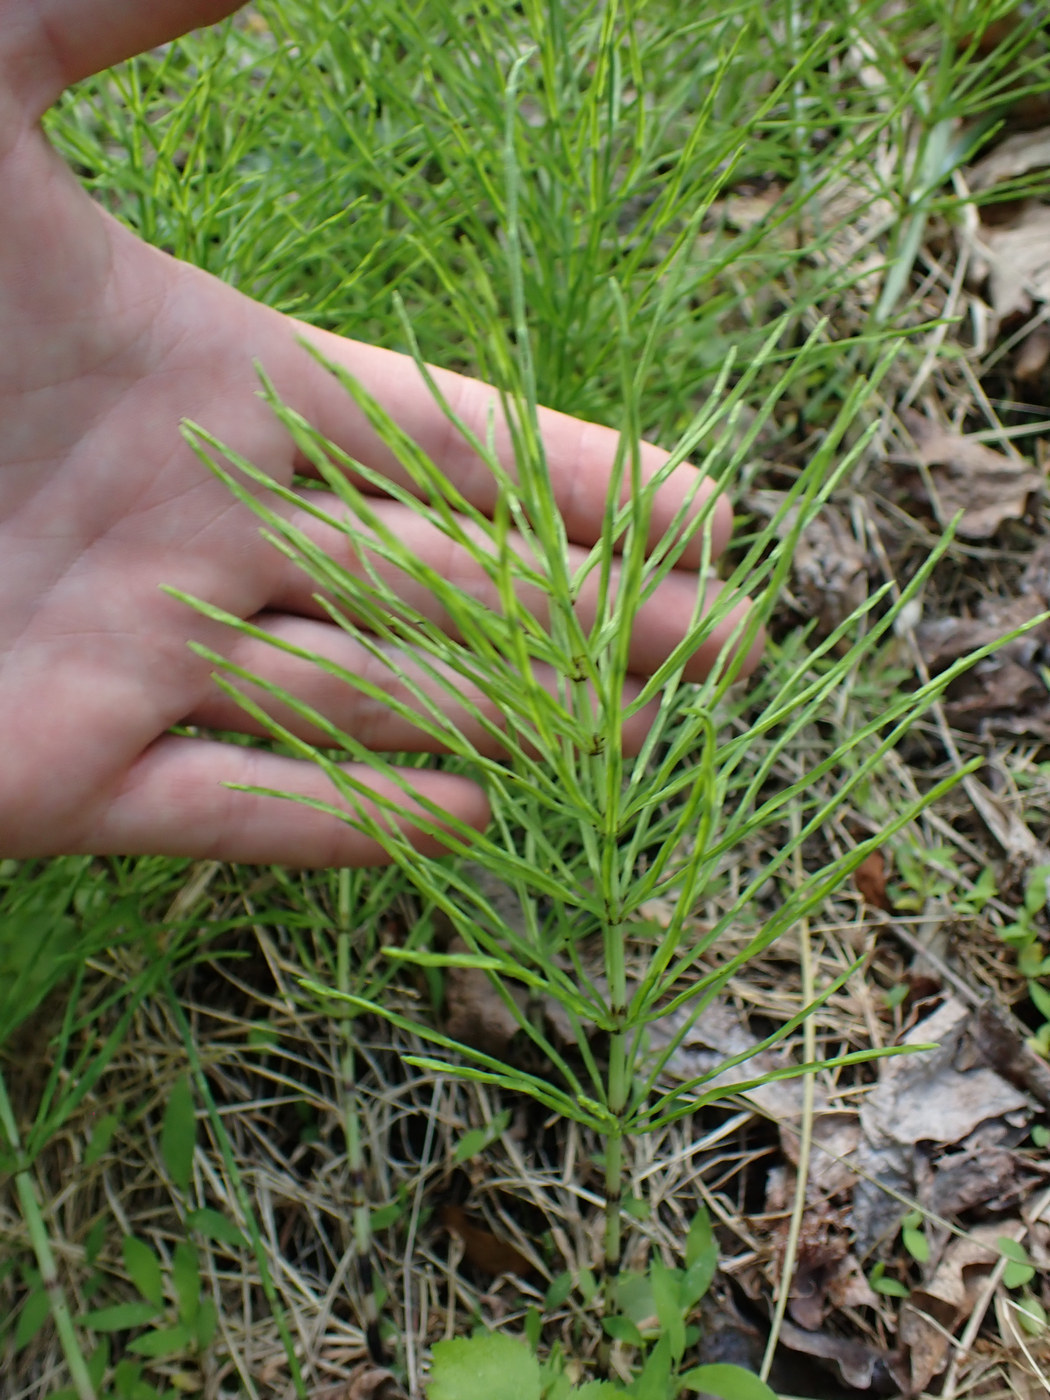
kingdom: Plantae
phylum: Tracheophyta
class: Polypodiopsida
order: Equisetales
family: Equisetaceae
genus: Equisetum
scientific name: Equisetum arvense
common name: Field horsetail
